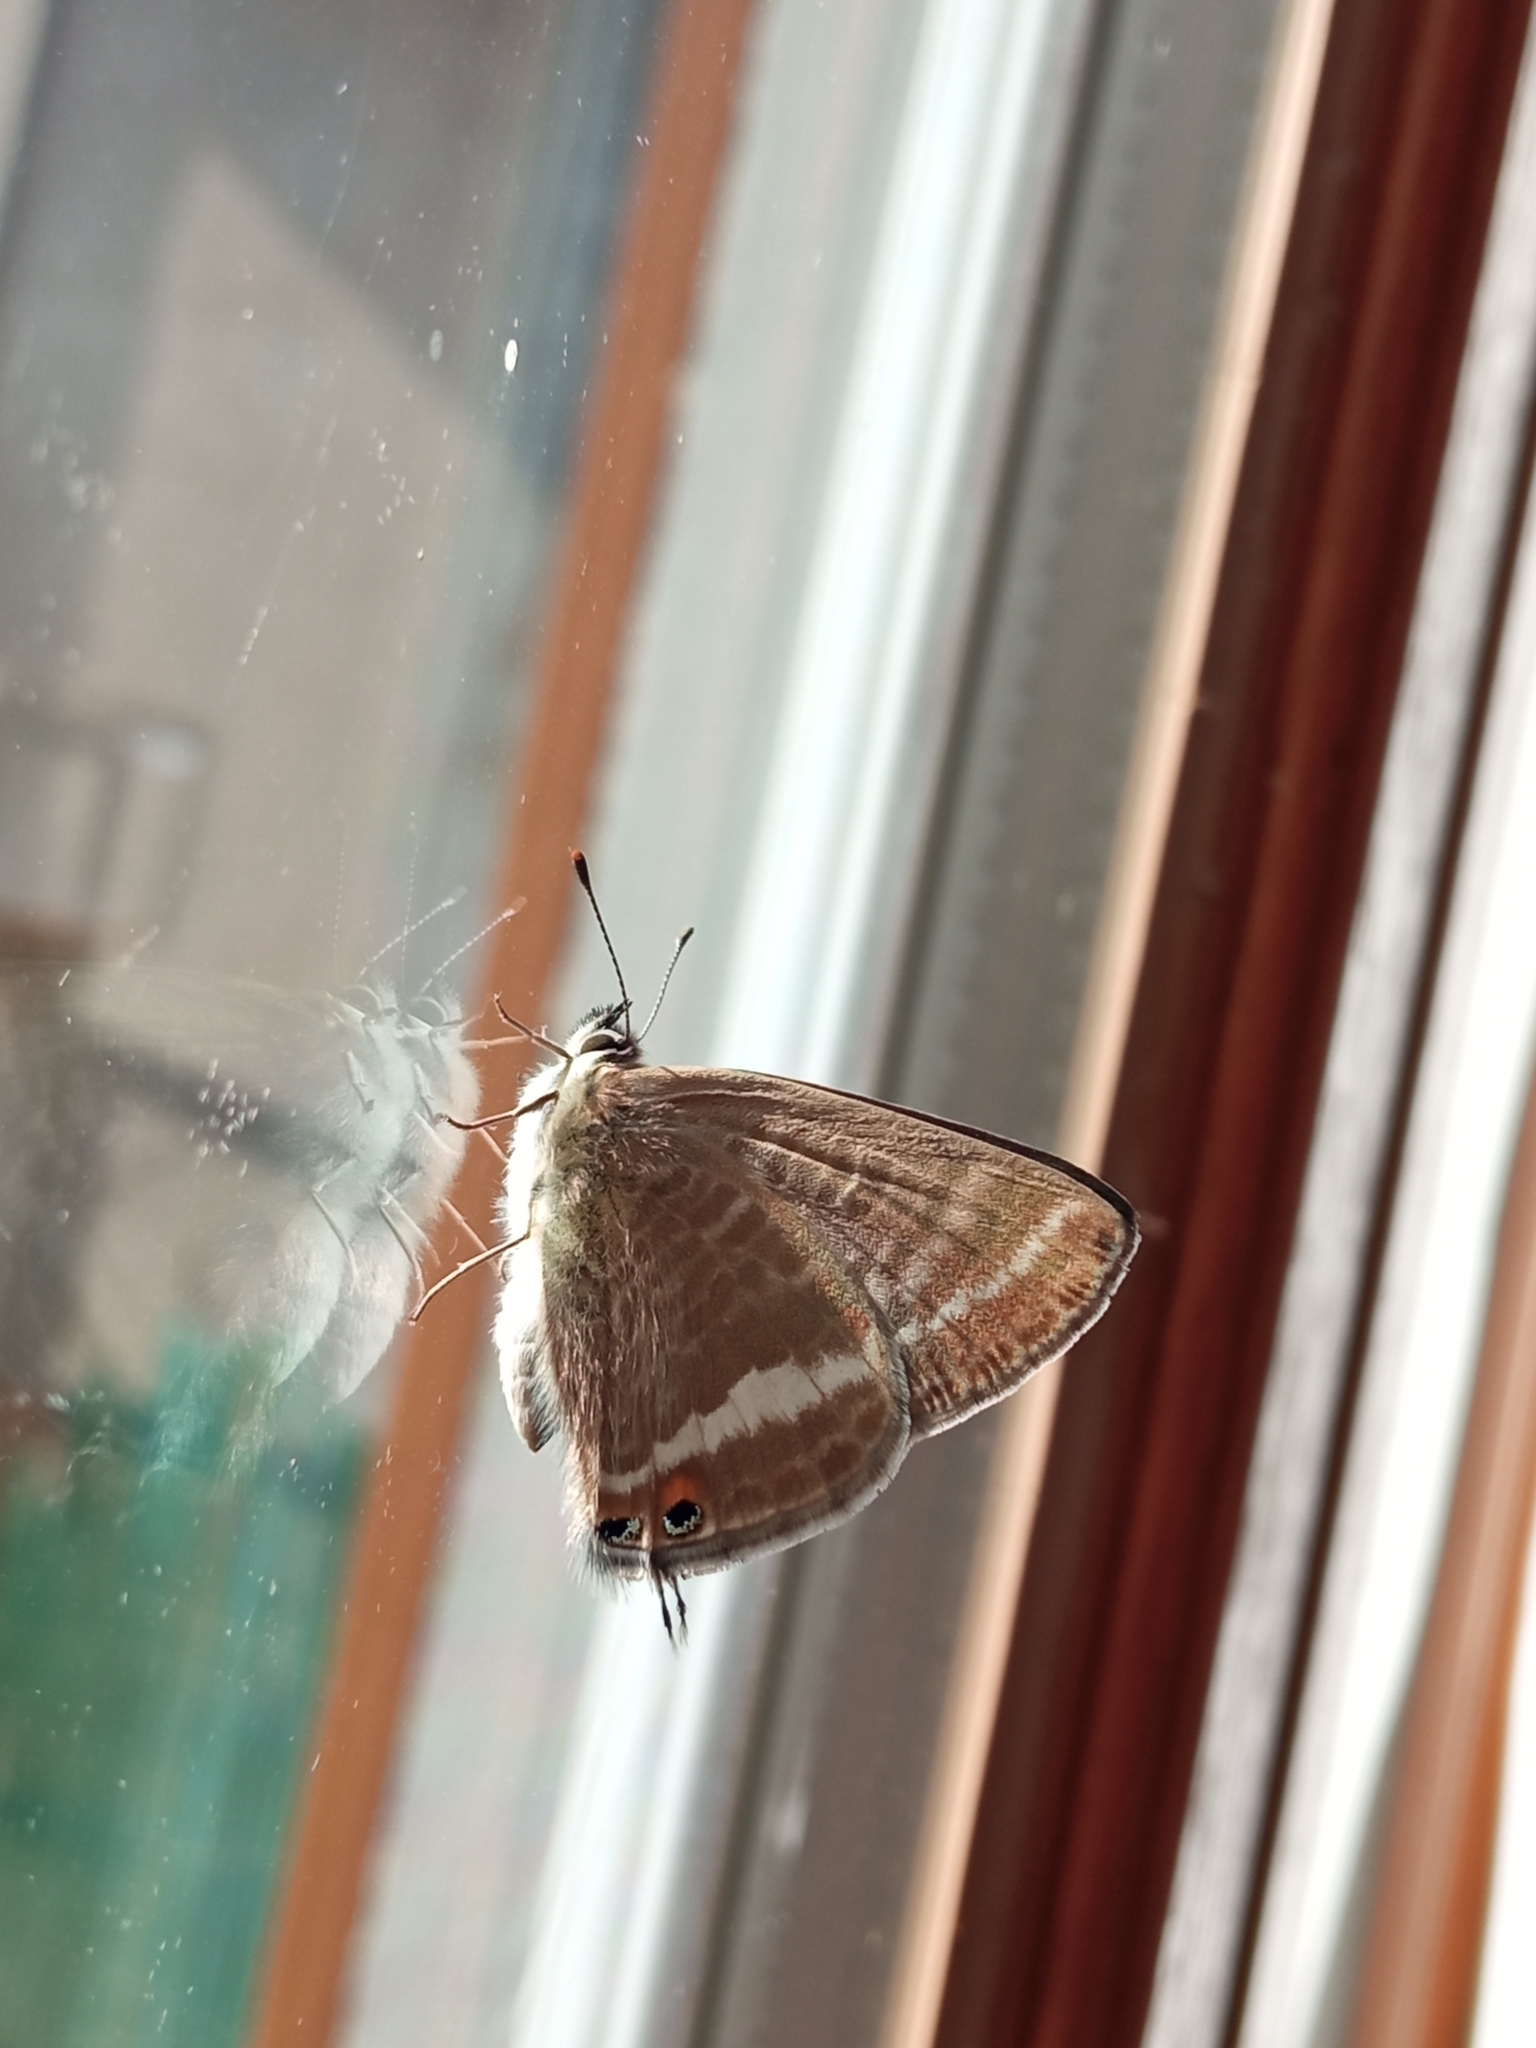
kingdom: Animalia
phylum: Arthropoda
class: Insecta
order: Lepidoptera
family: Lycaenidae
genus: Lampides
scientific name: Lampides boeticus
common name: Long-tailed blue
